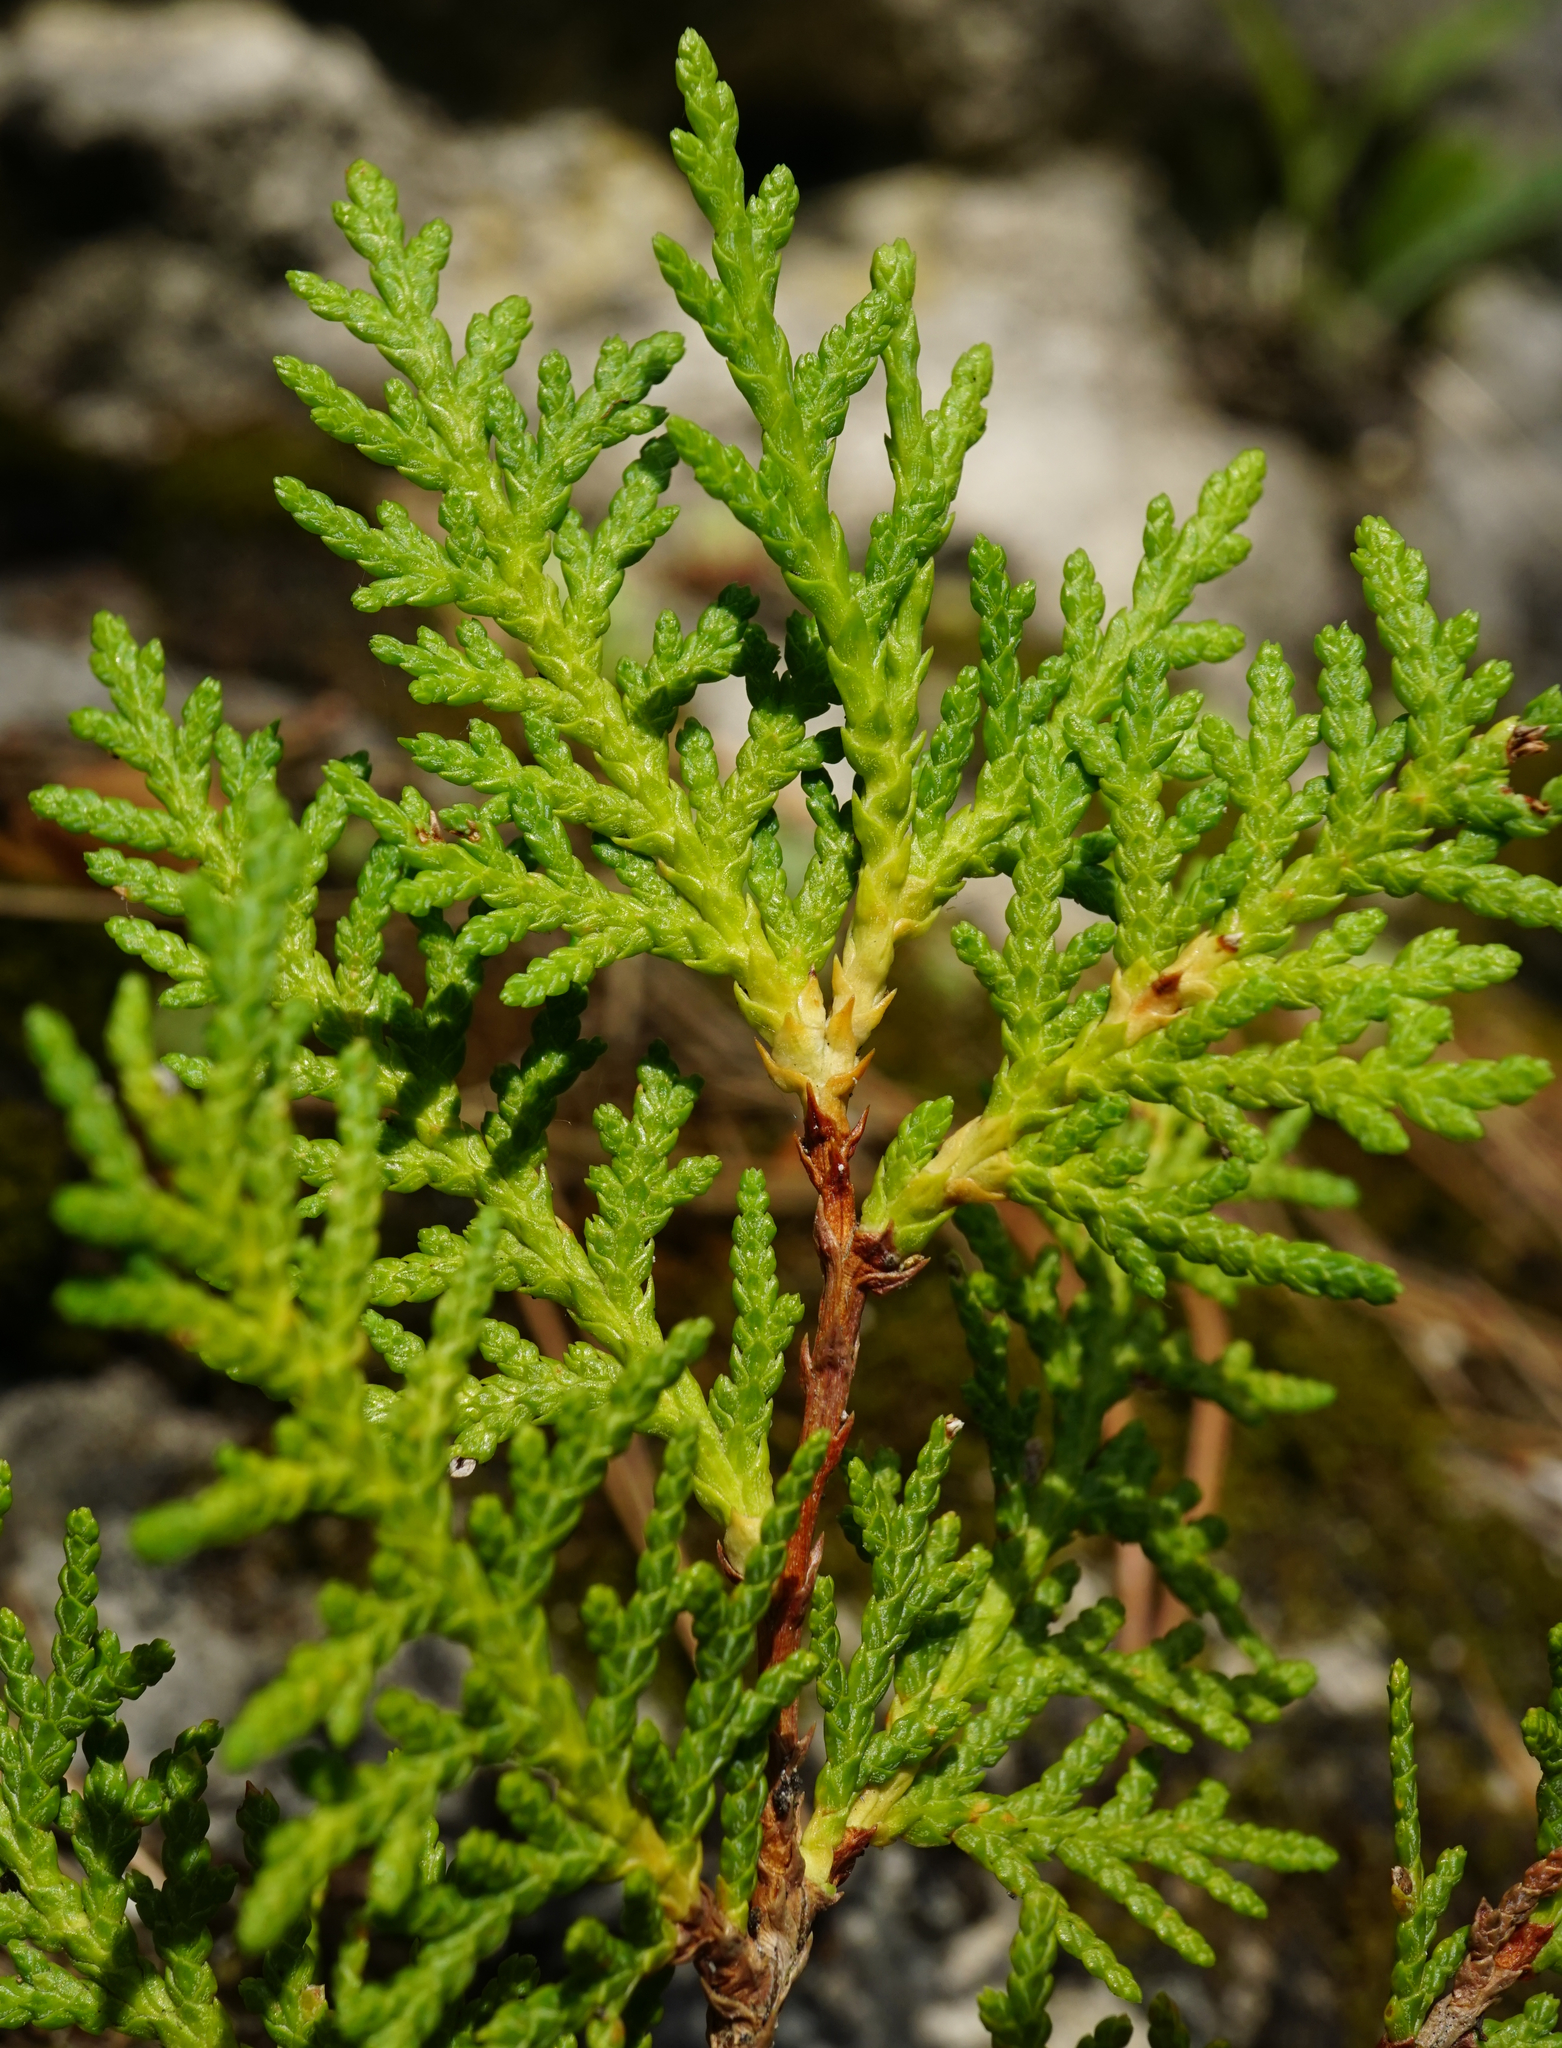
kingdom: Plantae
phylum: Tracheophyta
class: Pinopsida
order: Pinales
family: Cupressaceae
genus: Platycladus
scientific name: Platycladus orientalis
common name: Chinese thuja
